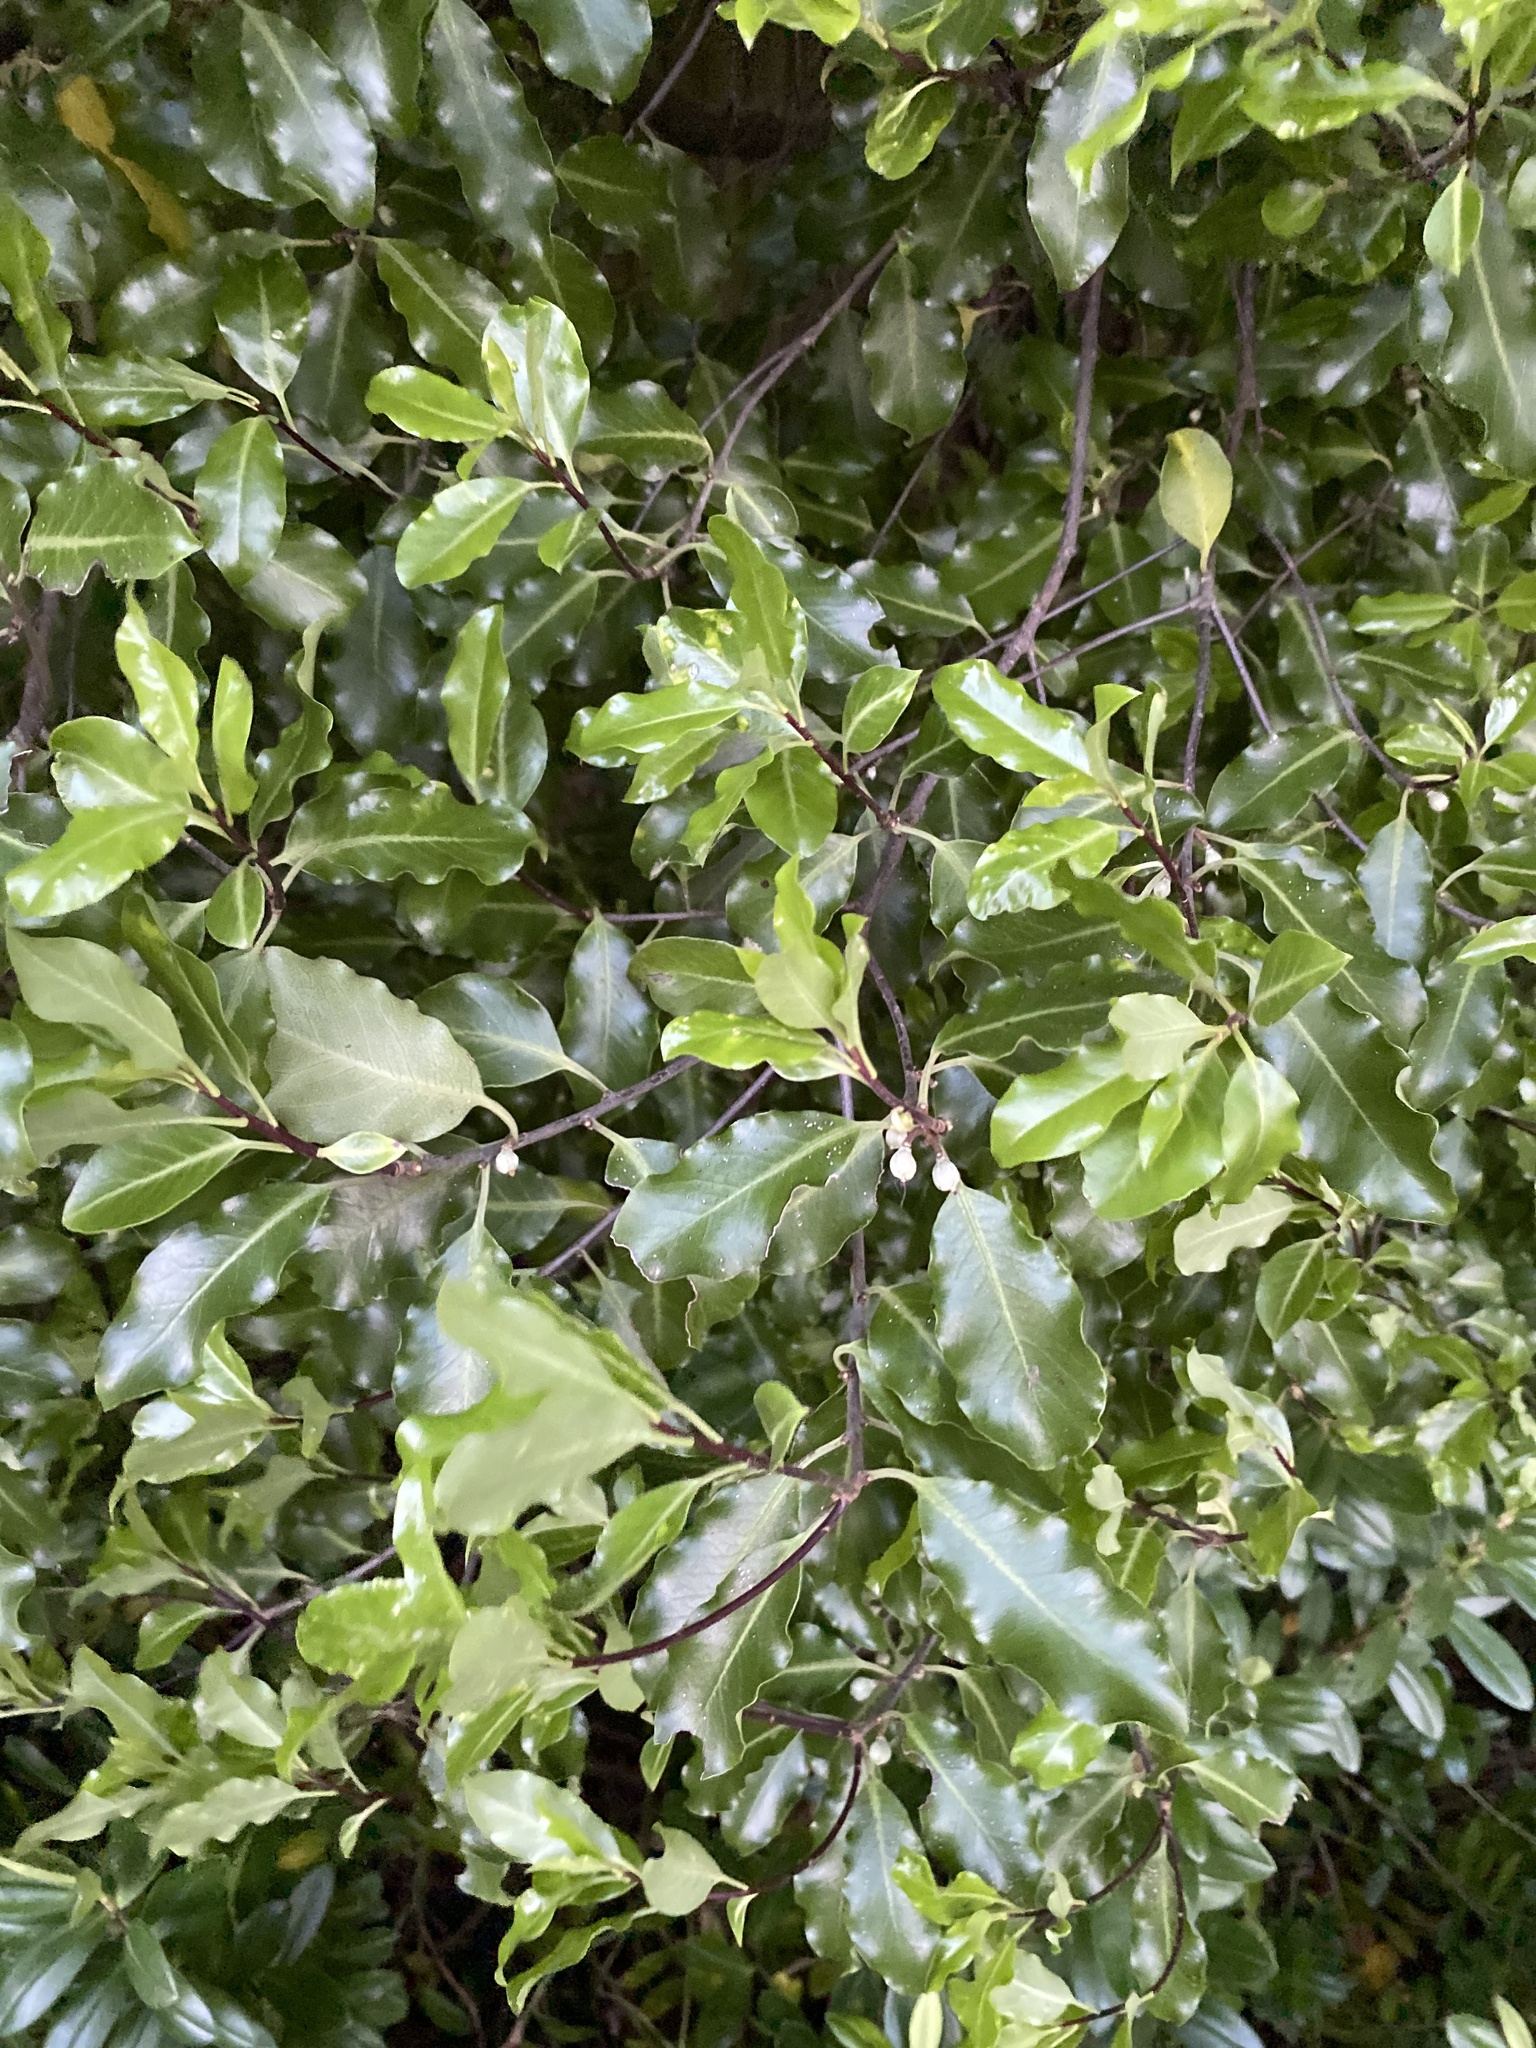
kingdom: Plantae
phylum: Tracheophyta
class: Magnoliopsida
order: Apiales
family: Pittosporaceae
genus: Pittosporum
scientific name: Pittosporum tenuifolium
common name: Kohuhu
